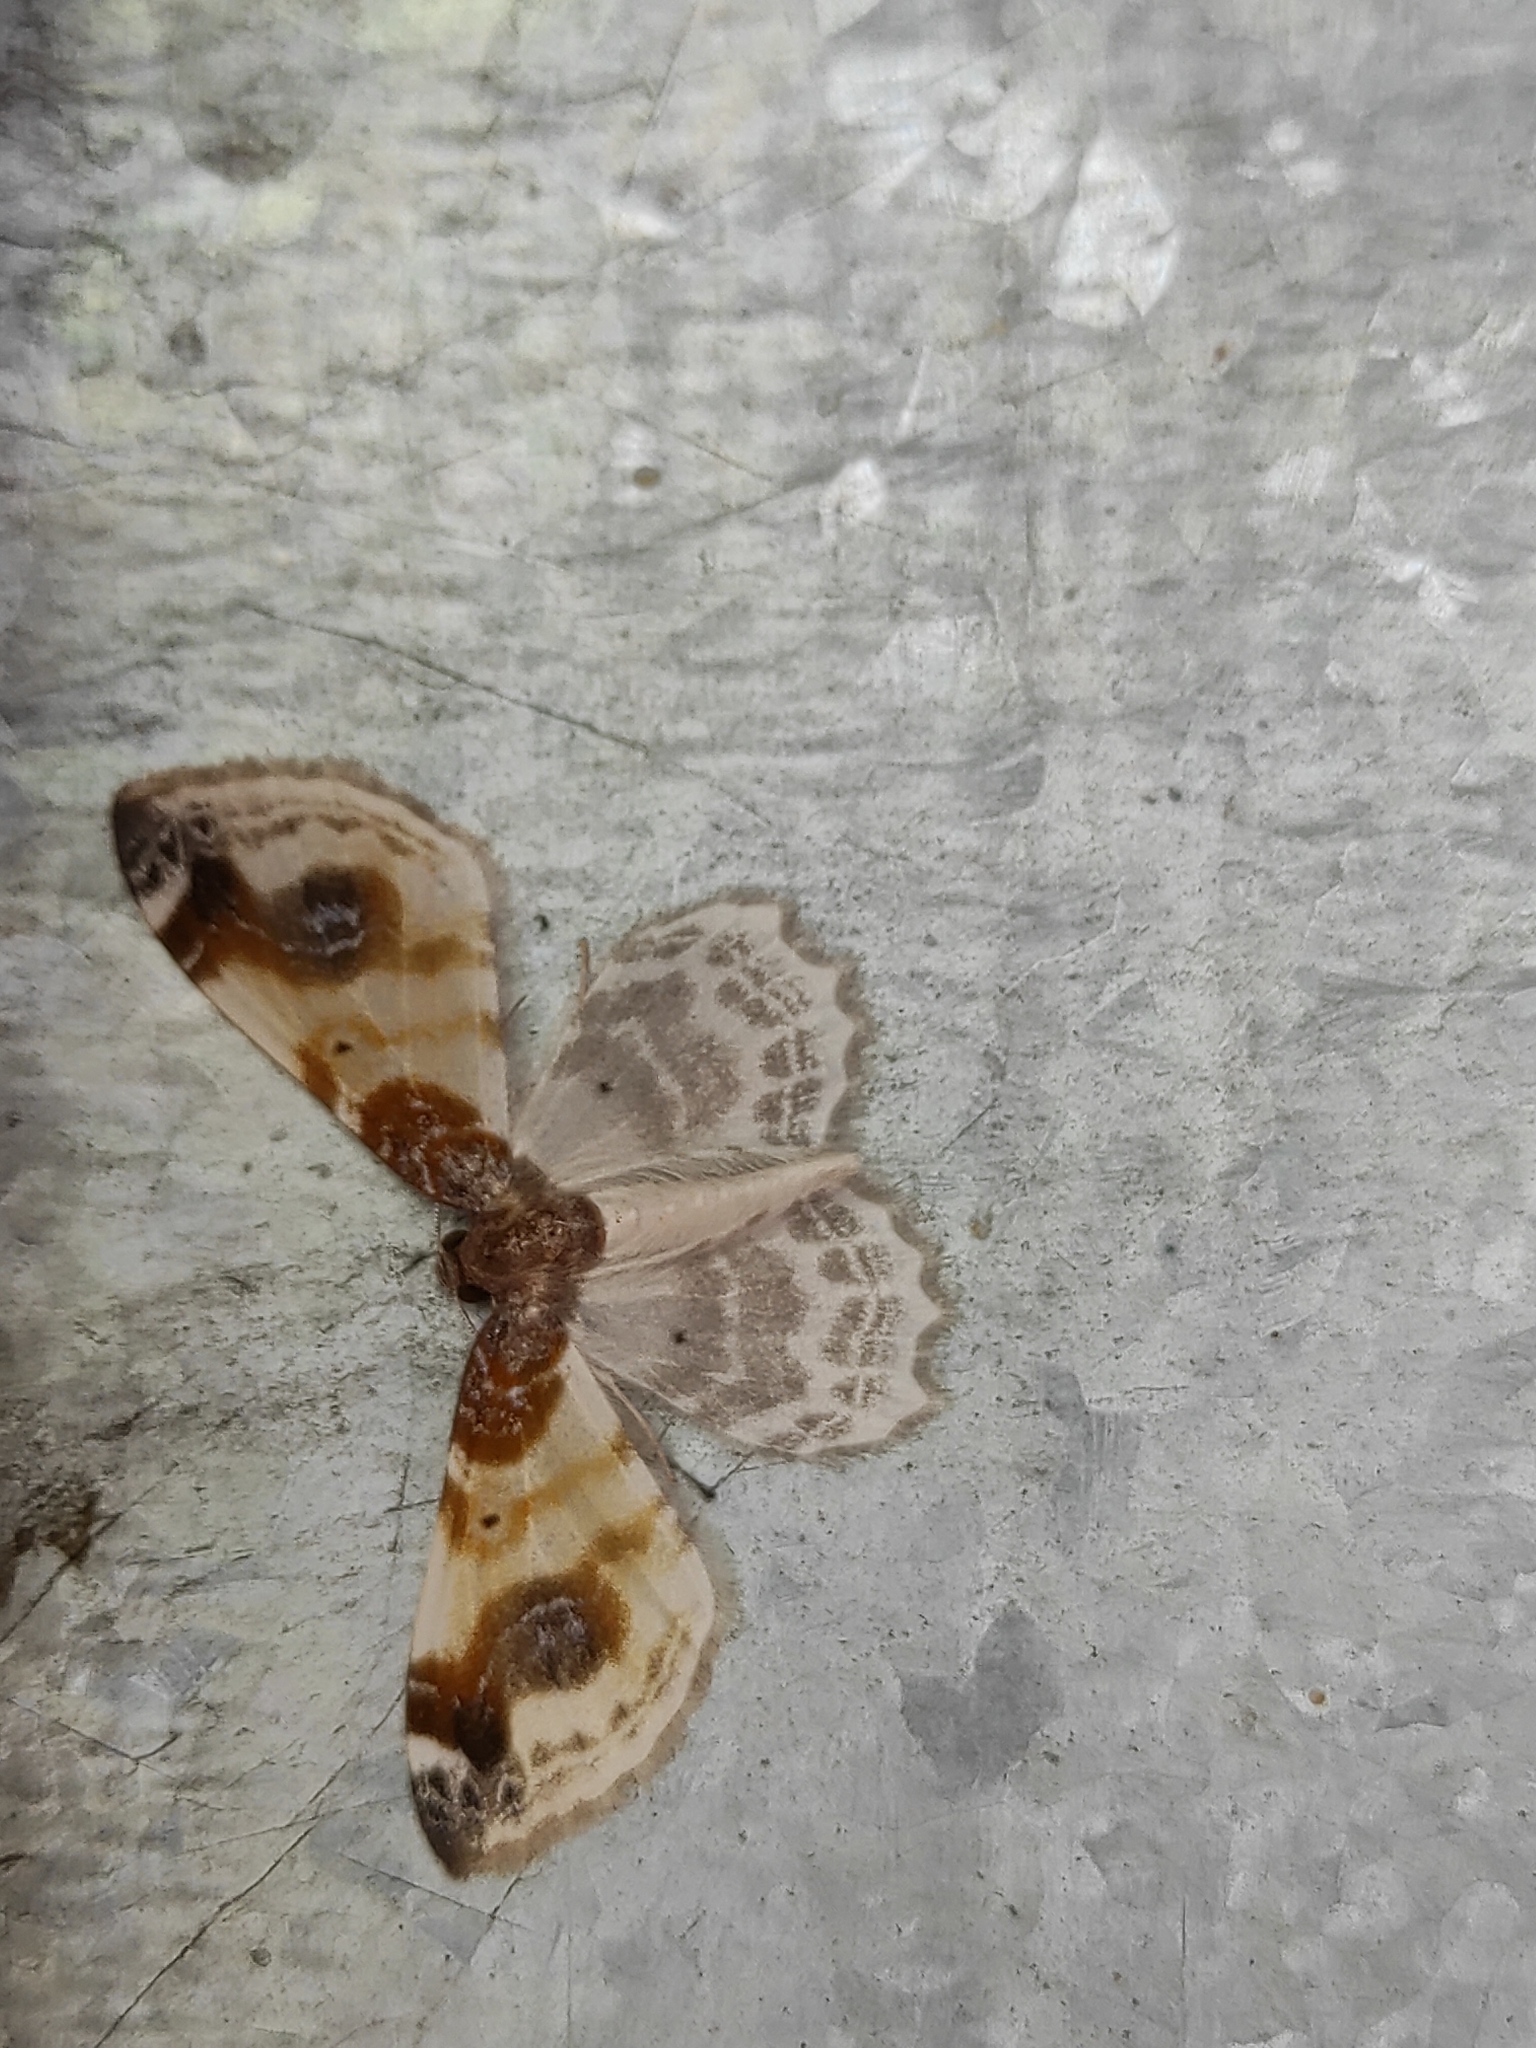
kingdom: Animalia
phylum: Arthropoda
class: Insecta
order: Lepidoptera
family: Geometridae
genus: Agnibesa
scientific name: Agnibesa pictaria
